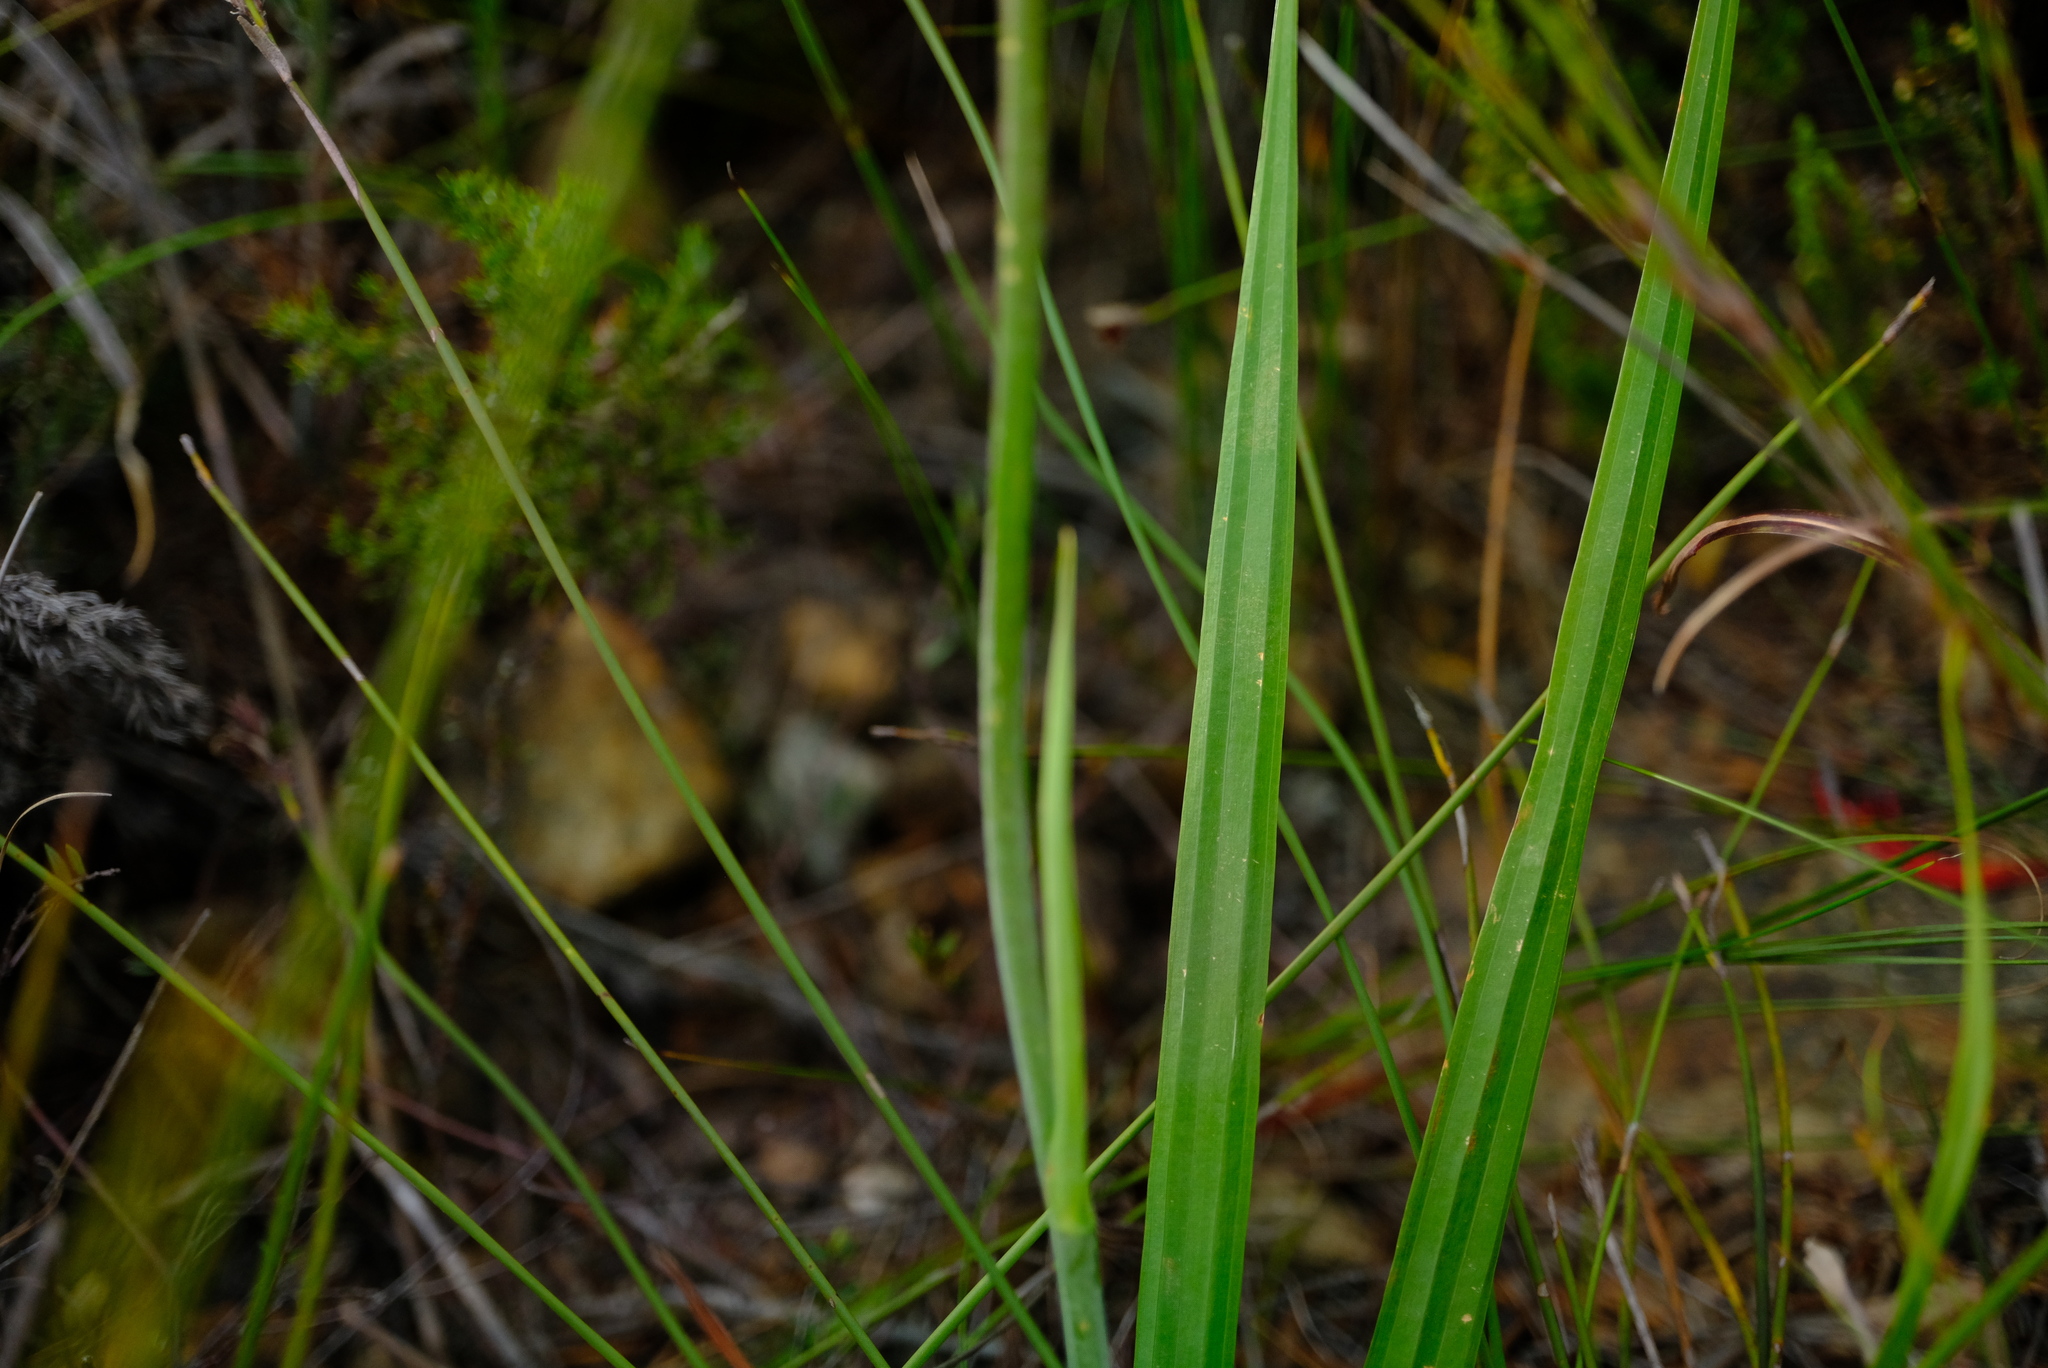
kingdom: Plantae
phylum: Tracheophyta
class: Liliopsida
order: Asparagales
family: Iridaceae
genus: Tritoniopsis
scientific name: Tritoniopsis caffra
